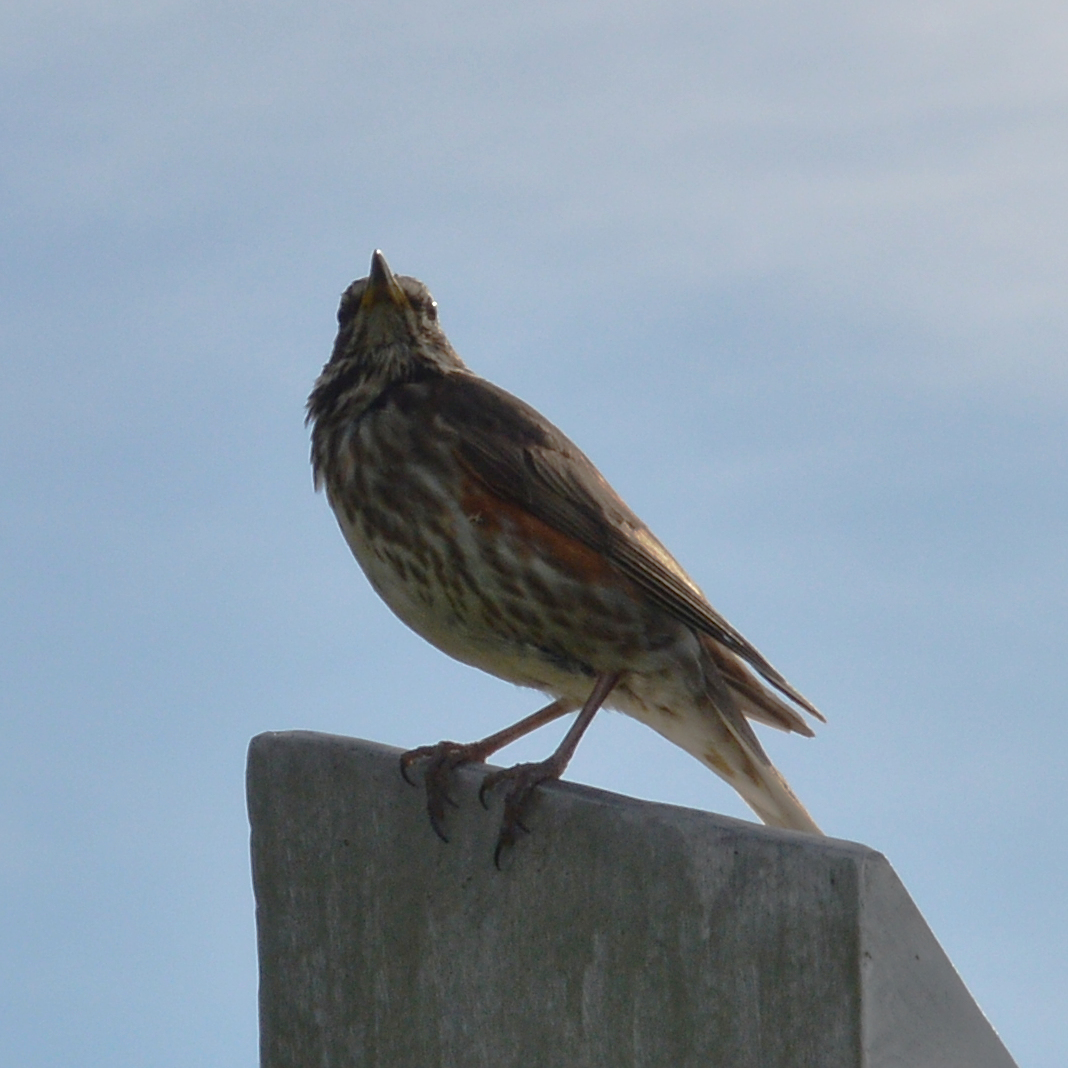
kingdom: Animalia
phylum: Chordata
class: Aves
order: Passeriformes
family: Turdidae
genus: Turdus
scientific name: Turdus iliacus
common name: Redwing
